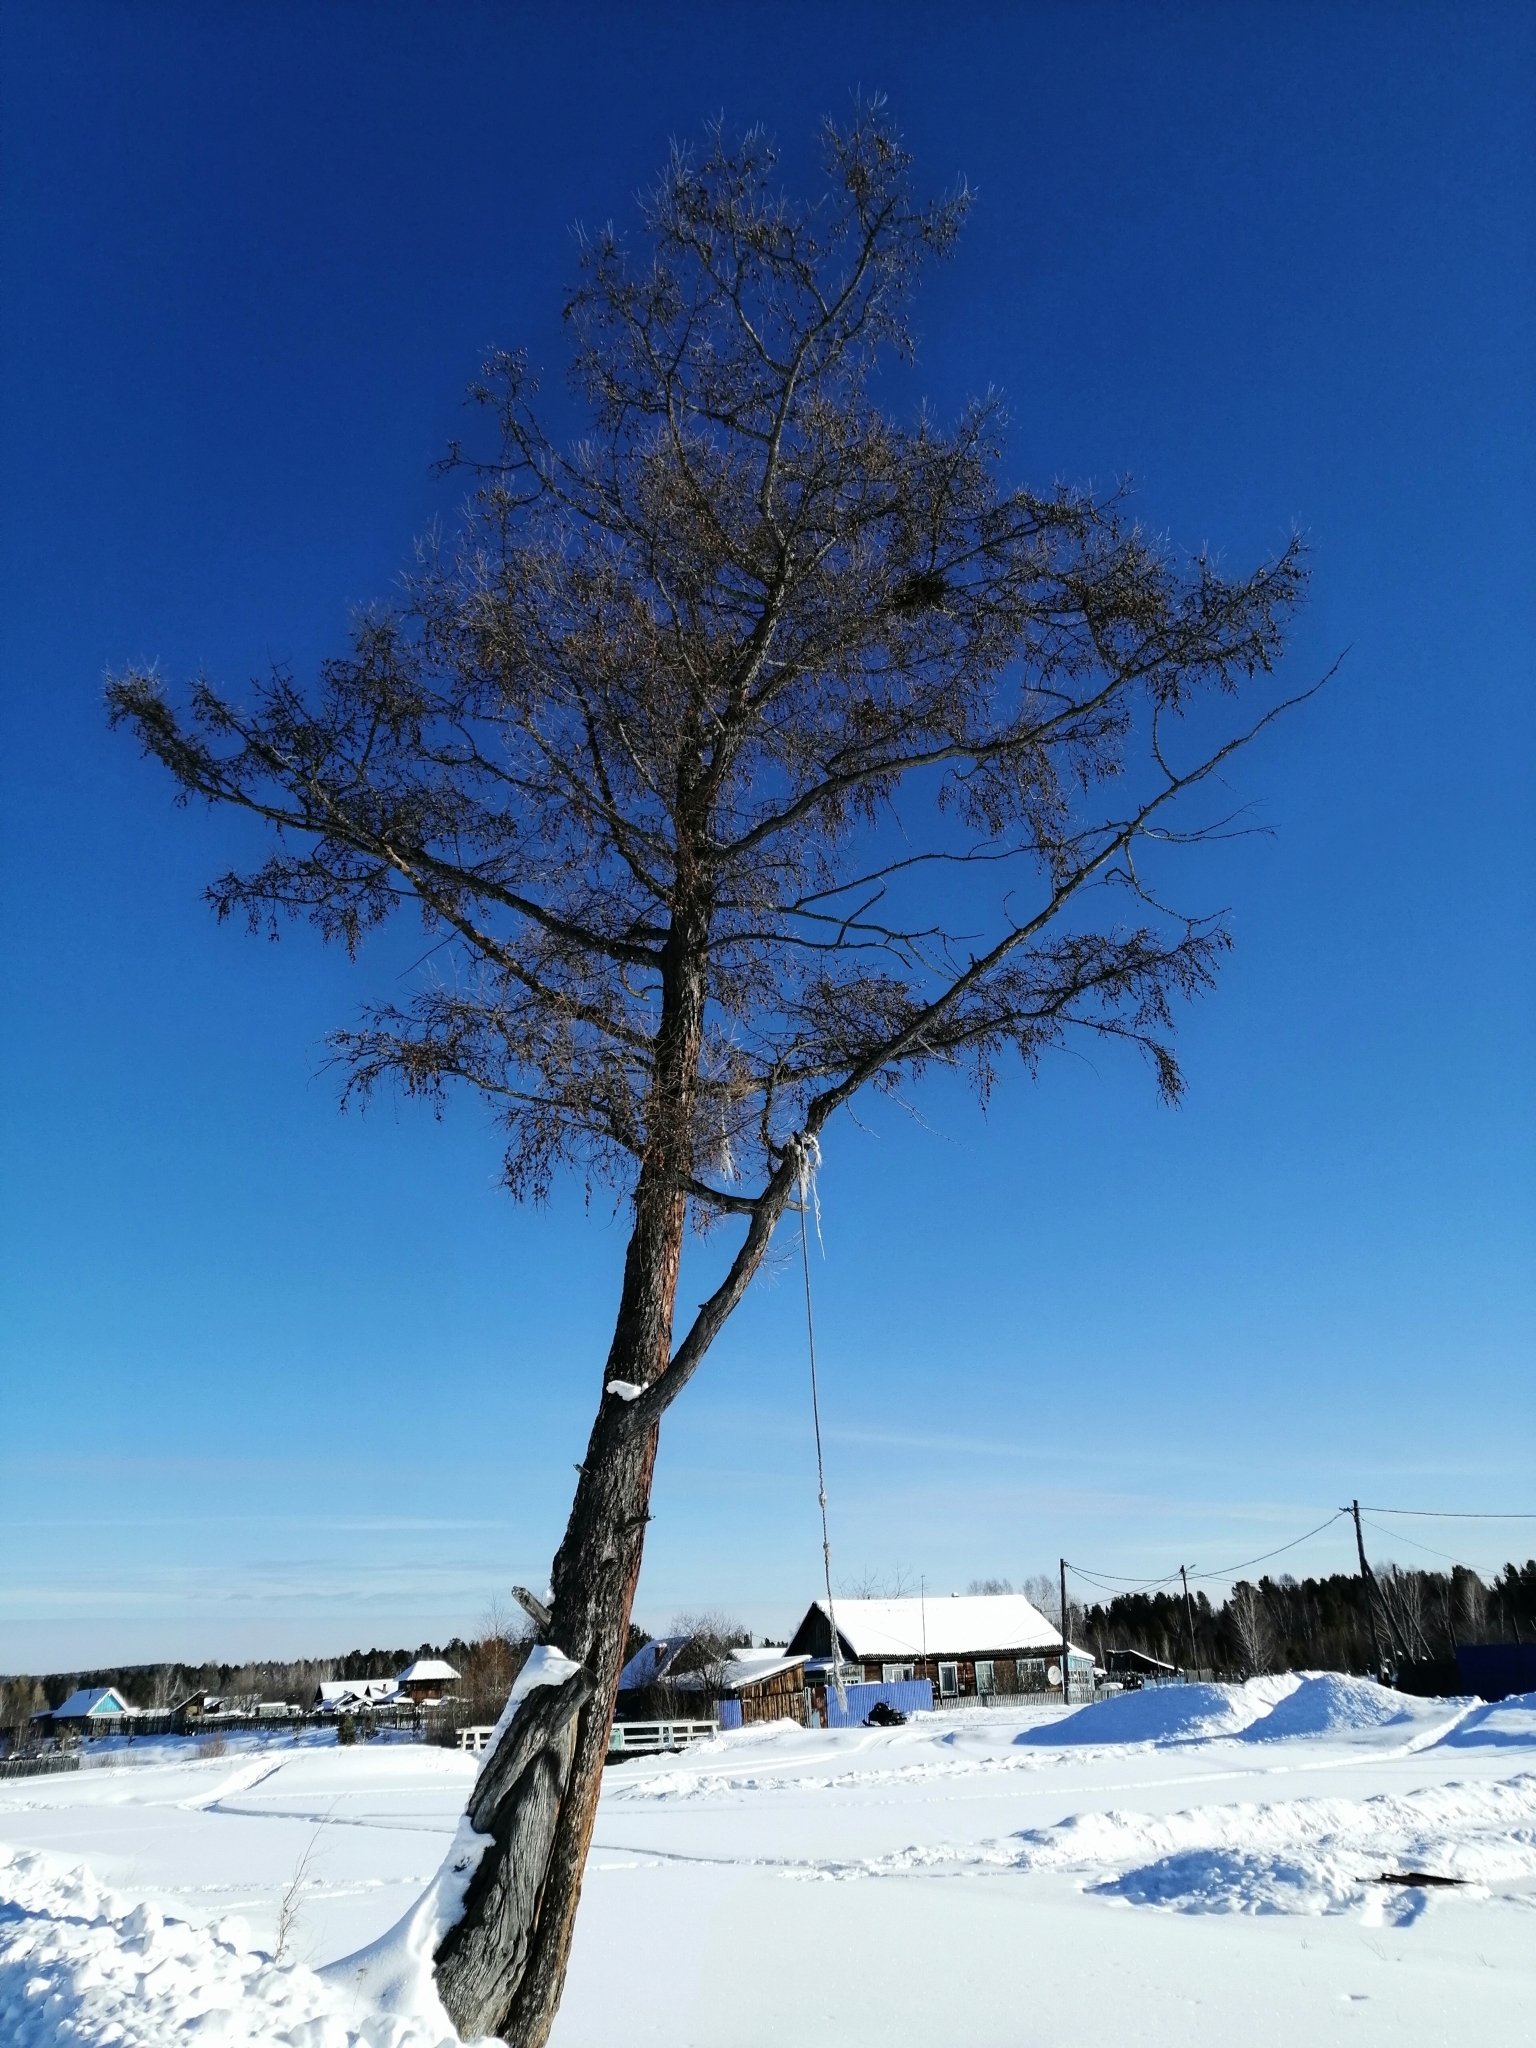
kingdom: Plantae
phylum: Tracheophyta
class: Pinopsida
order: Pinales
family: Pinaceae
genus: Larix
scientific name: Larix sibirica
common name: Siberian larch
